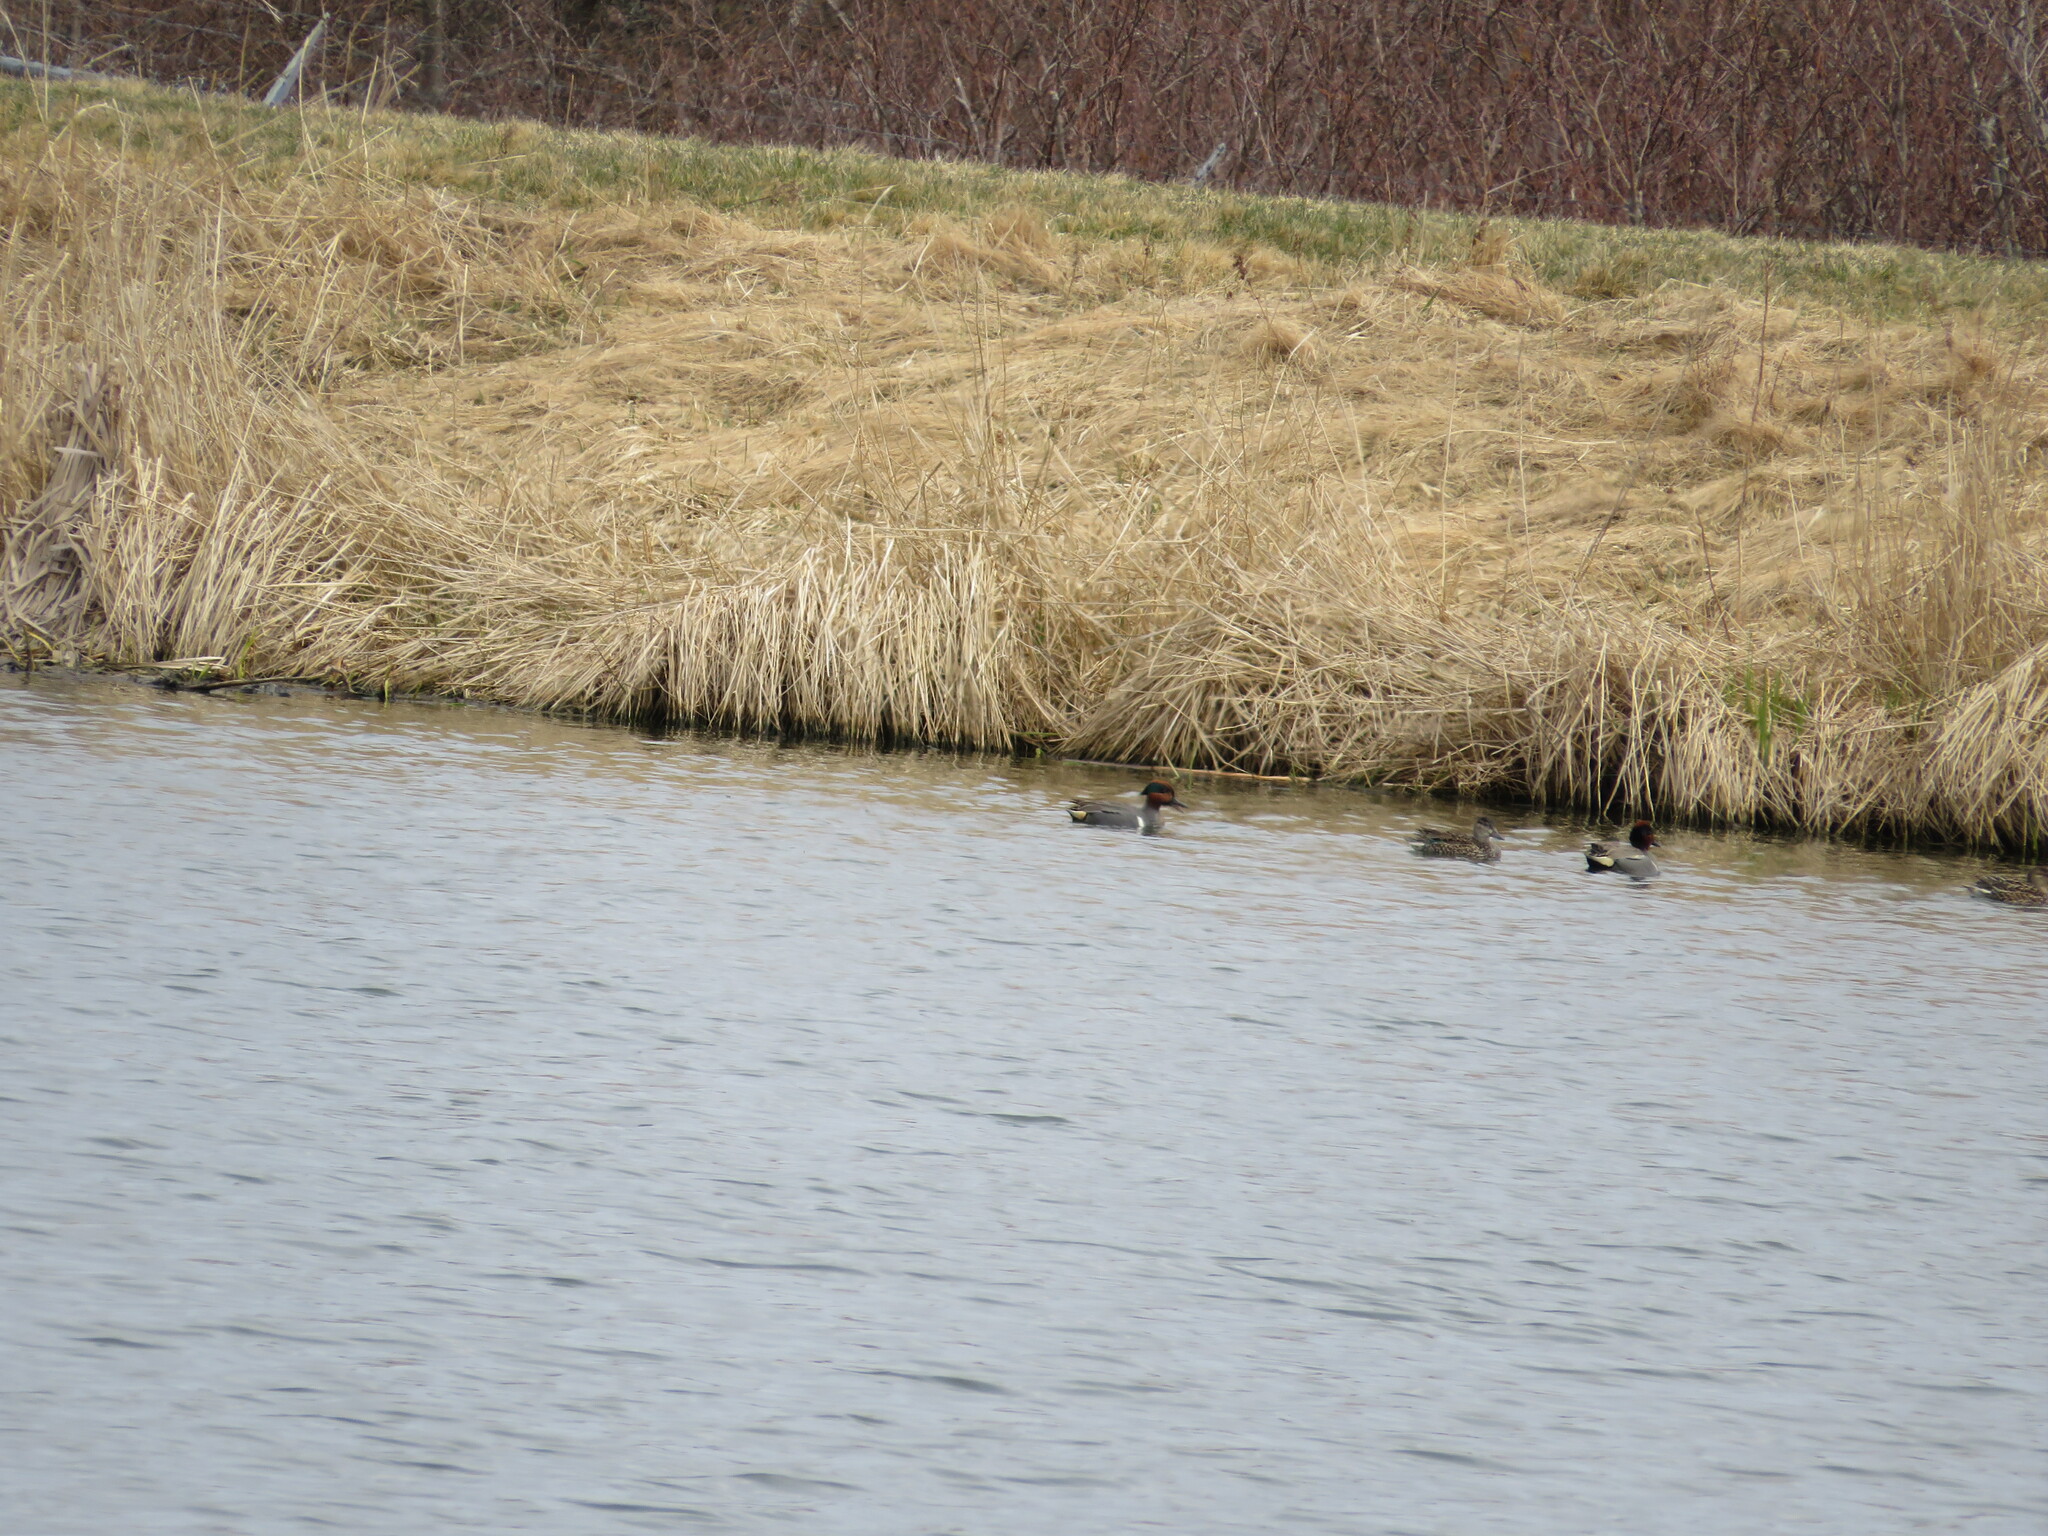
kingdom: Animalia
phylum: Chordata
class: Aves
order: Anseriformes
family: Anatidae
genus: Anas
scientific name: Anas crecca
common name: Eurasian teal
